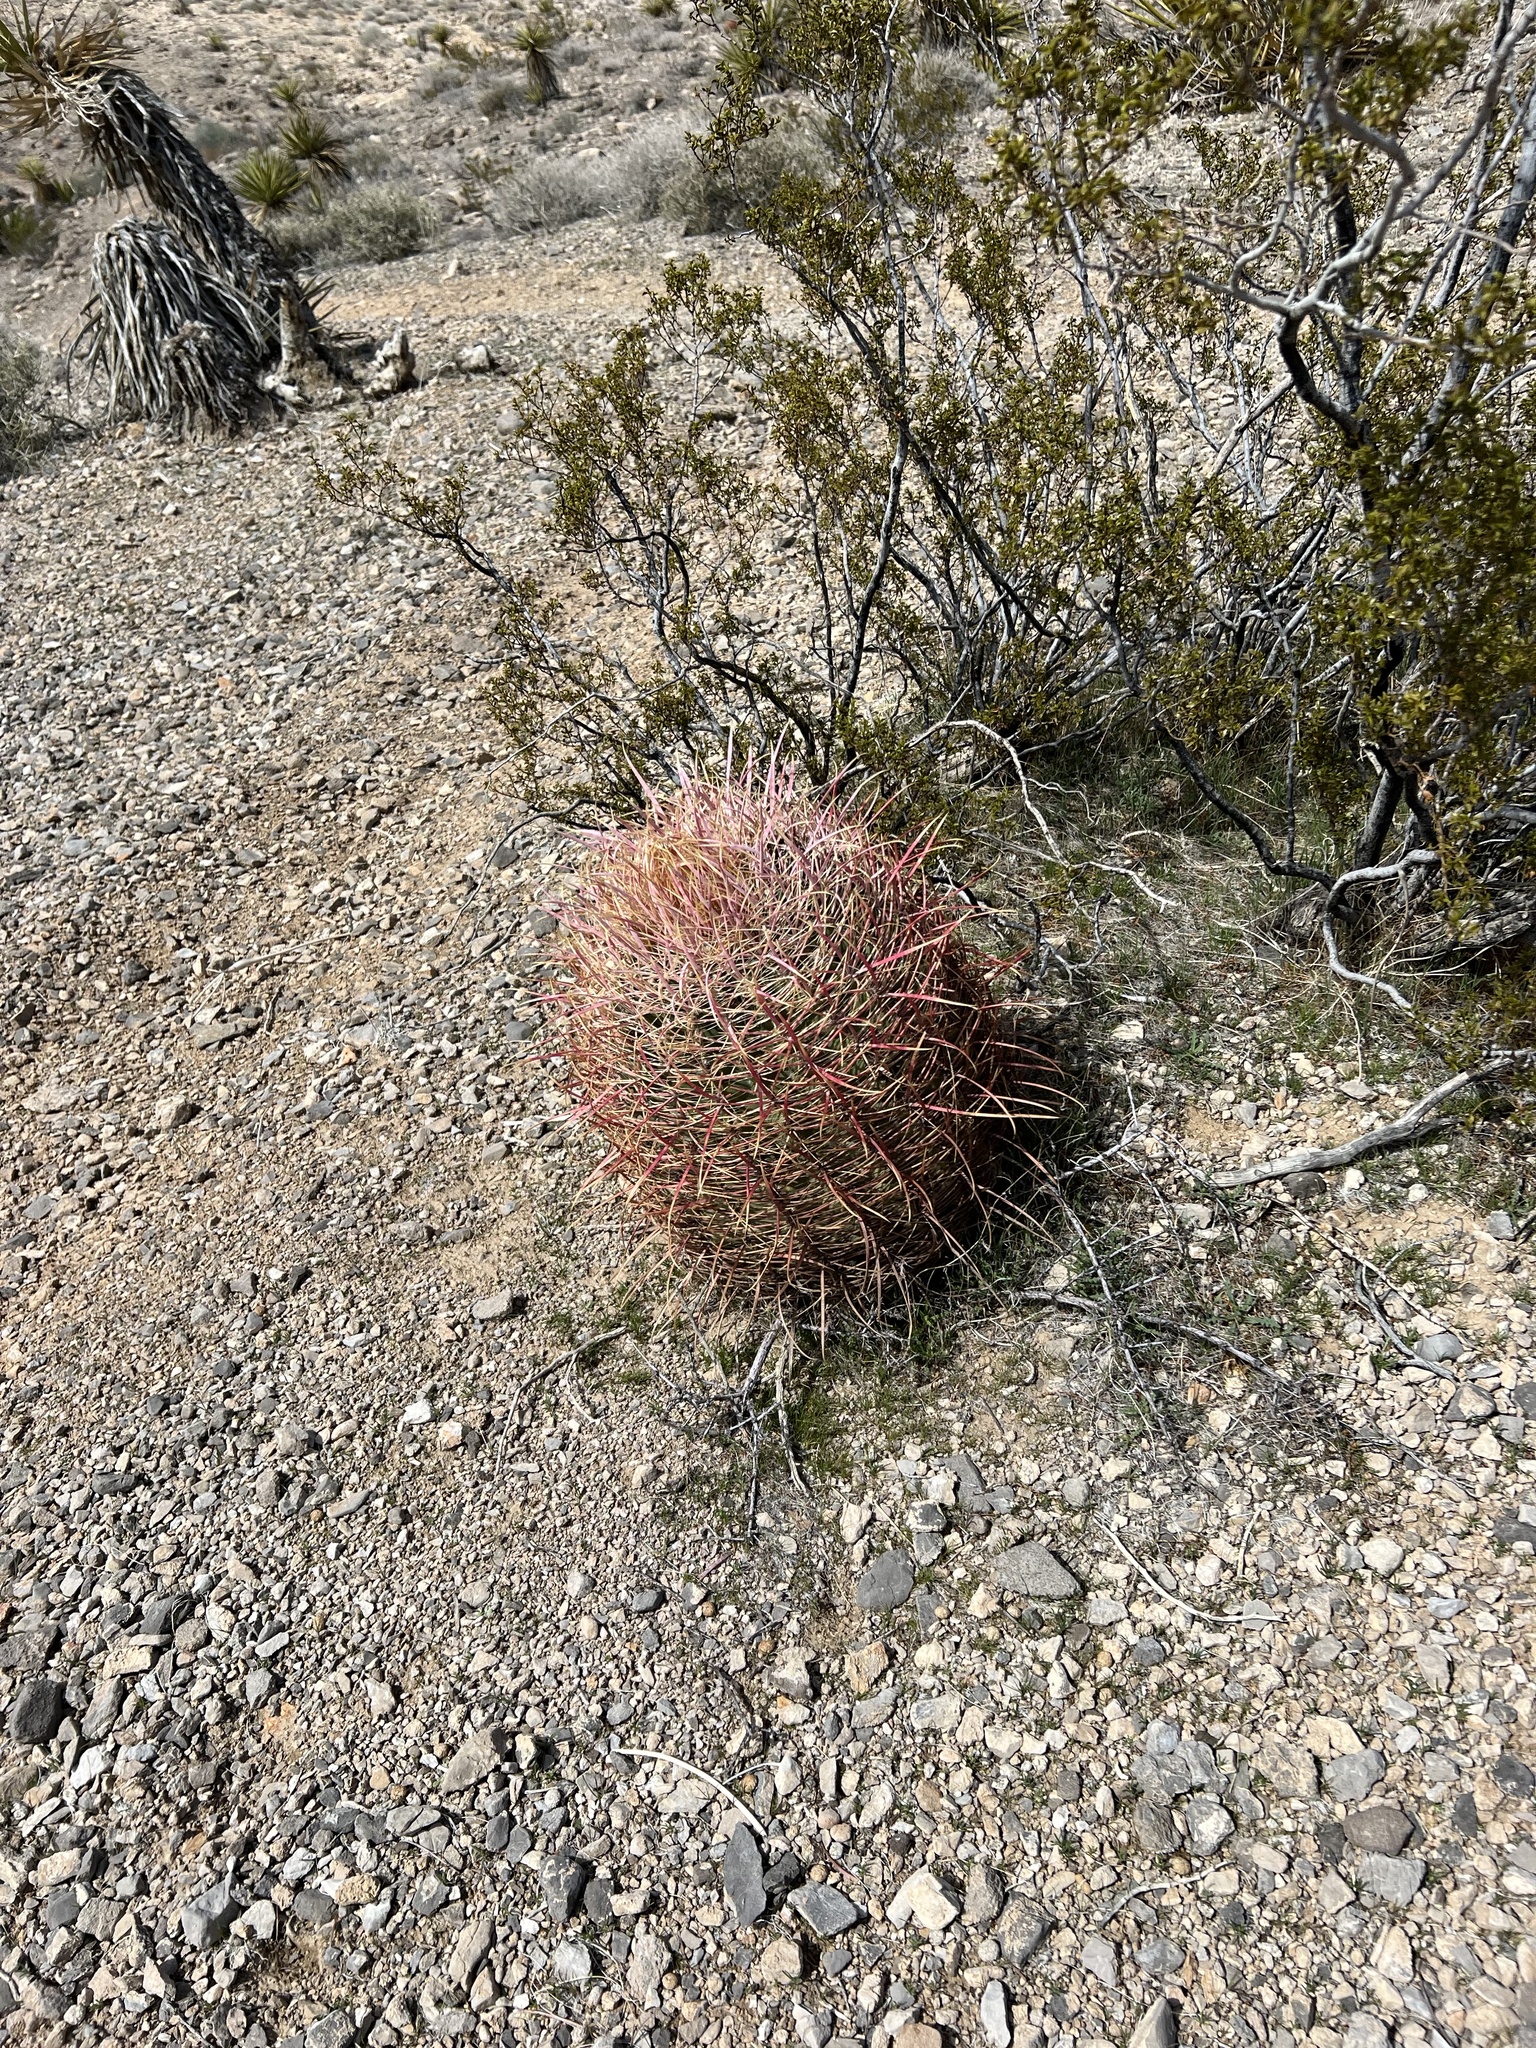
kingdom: Plantae
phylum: Tracheophyta
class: Magnoliopsida
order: Caryophyllales
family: Cactaceae
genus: Ferocactus
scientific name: Ferocactus cylindraceus
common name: California barrel cactus
